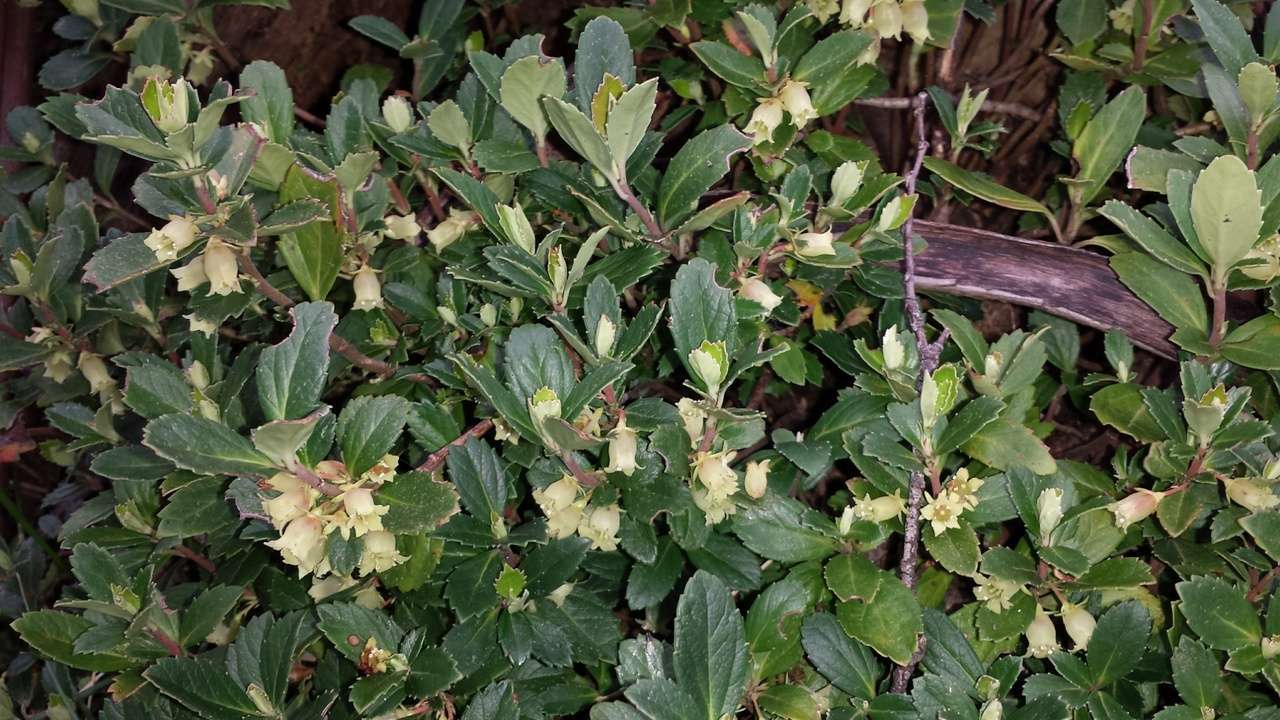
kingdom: Plantae
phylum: Tracheophyta
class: Magnoliopsida
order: Asterales
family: Alseuosmiaceae
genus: Wittsteinia
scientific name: Wittsteinia vacciniacea
